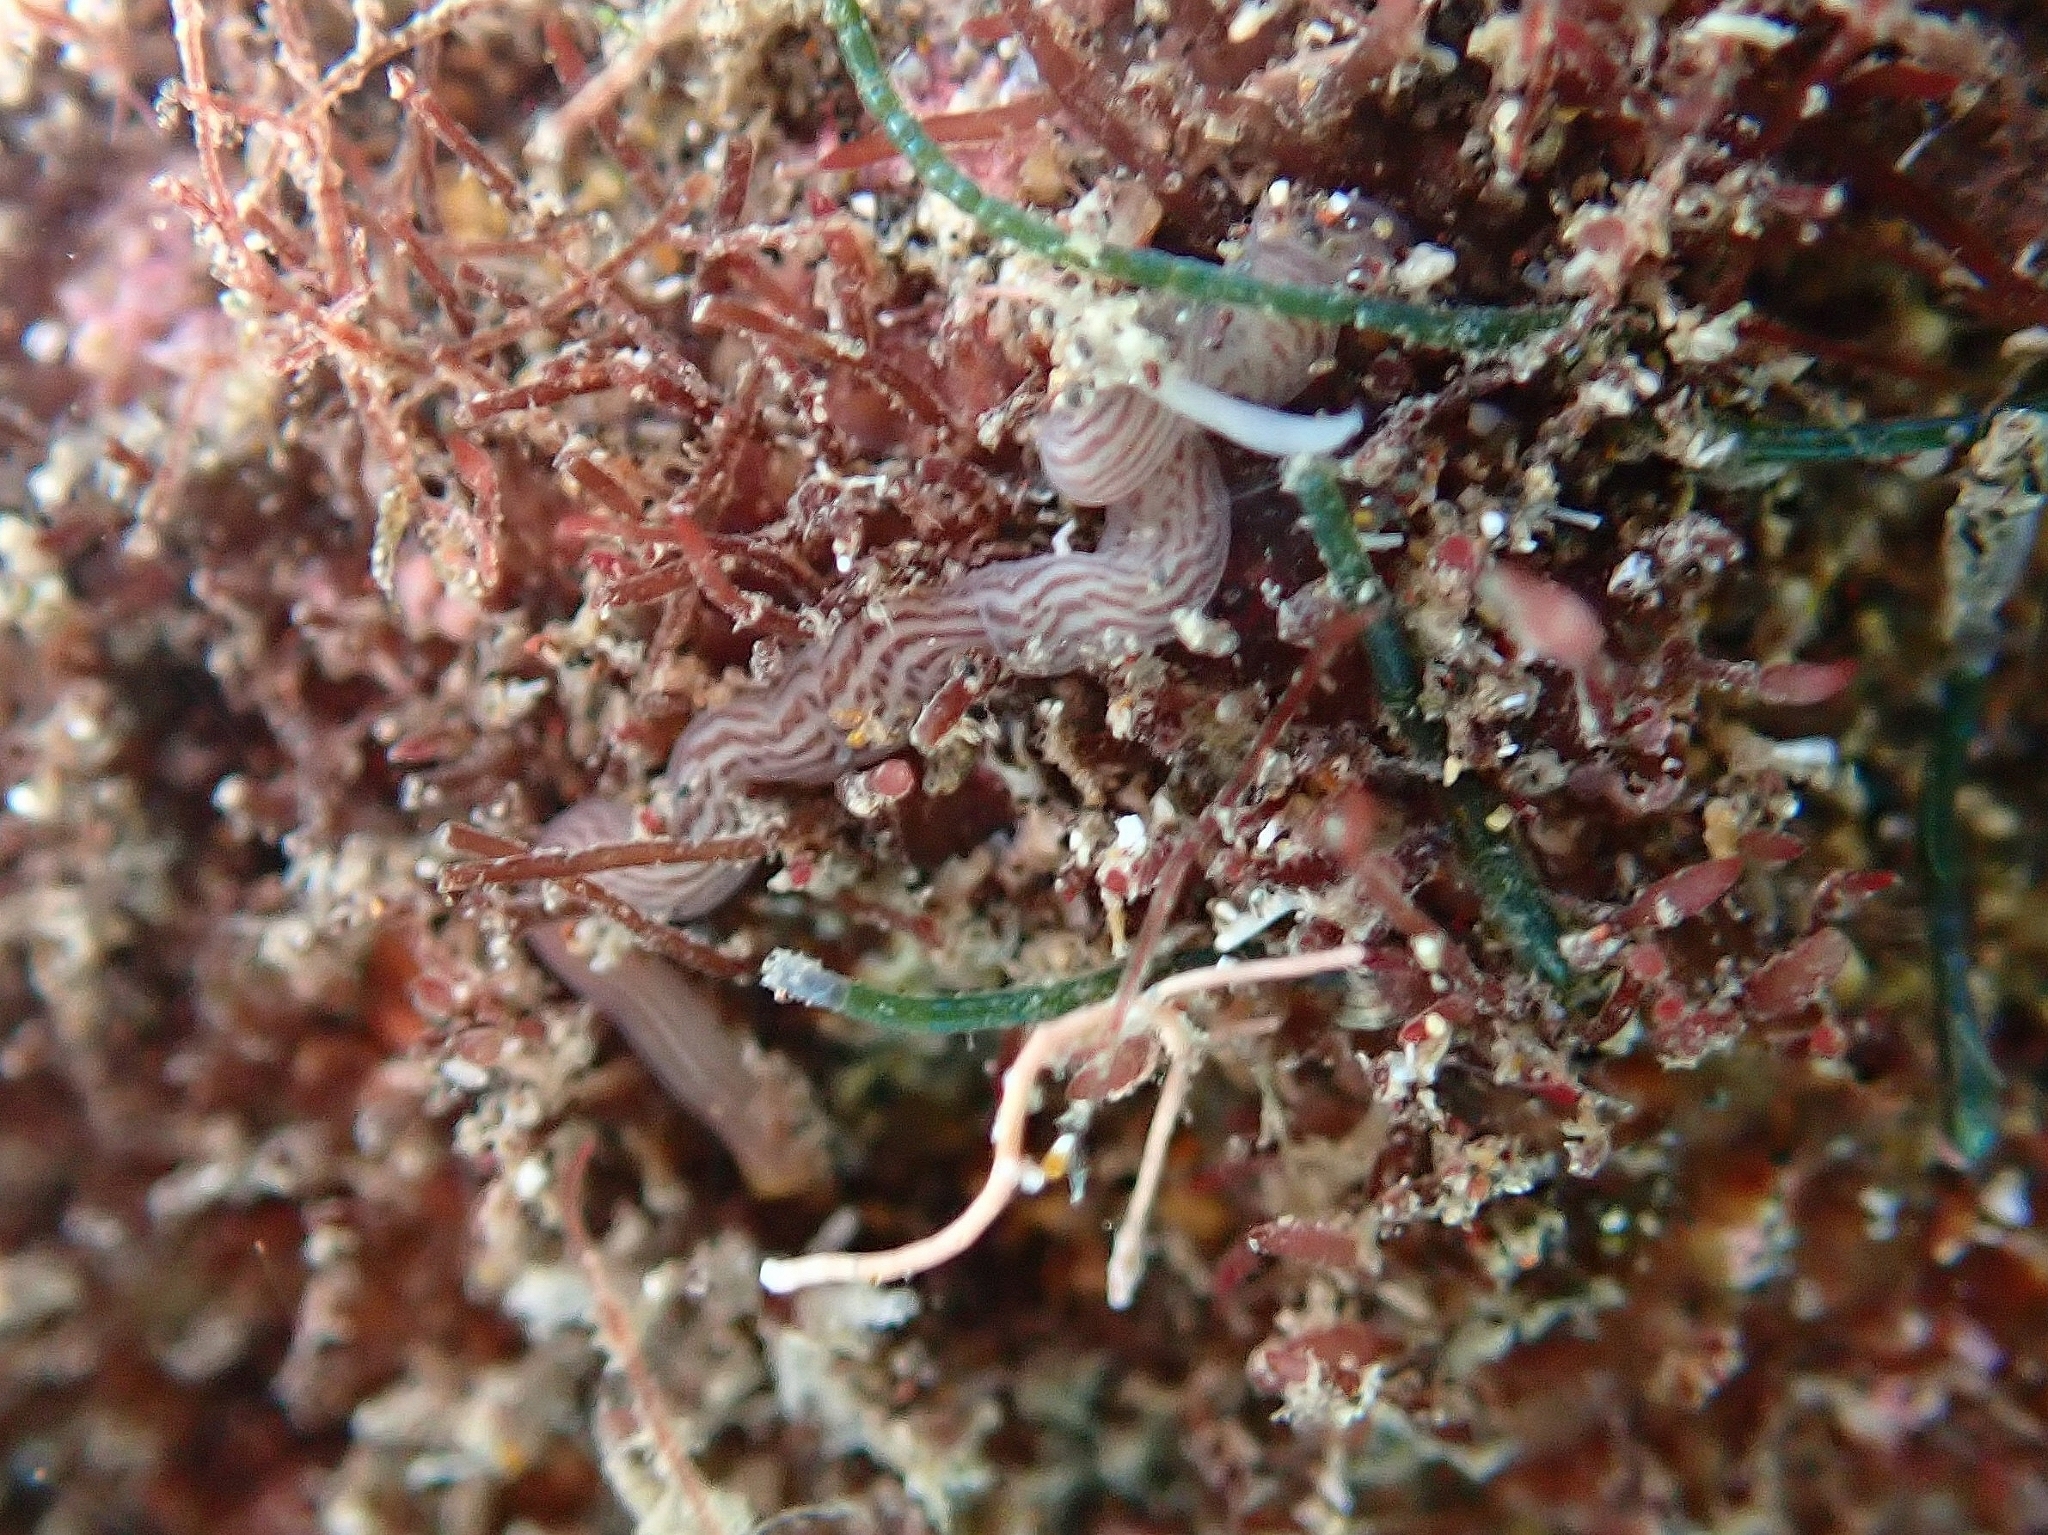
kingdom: Animalia
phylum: Nemertea
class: Pilidiophora
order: Heteronemertea
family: Valenciniidae
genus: Baseodiscus
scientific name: Baseodiscus delineatus
